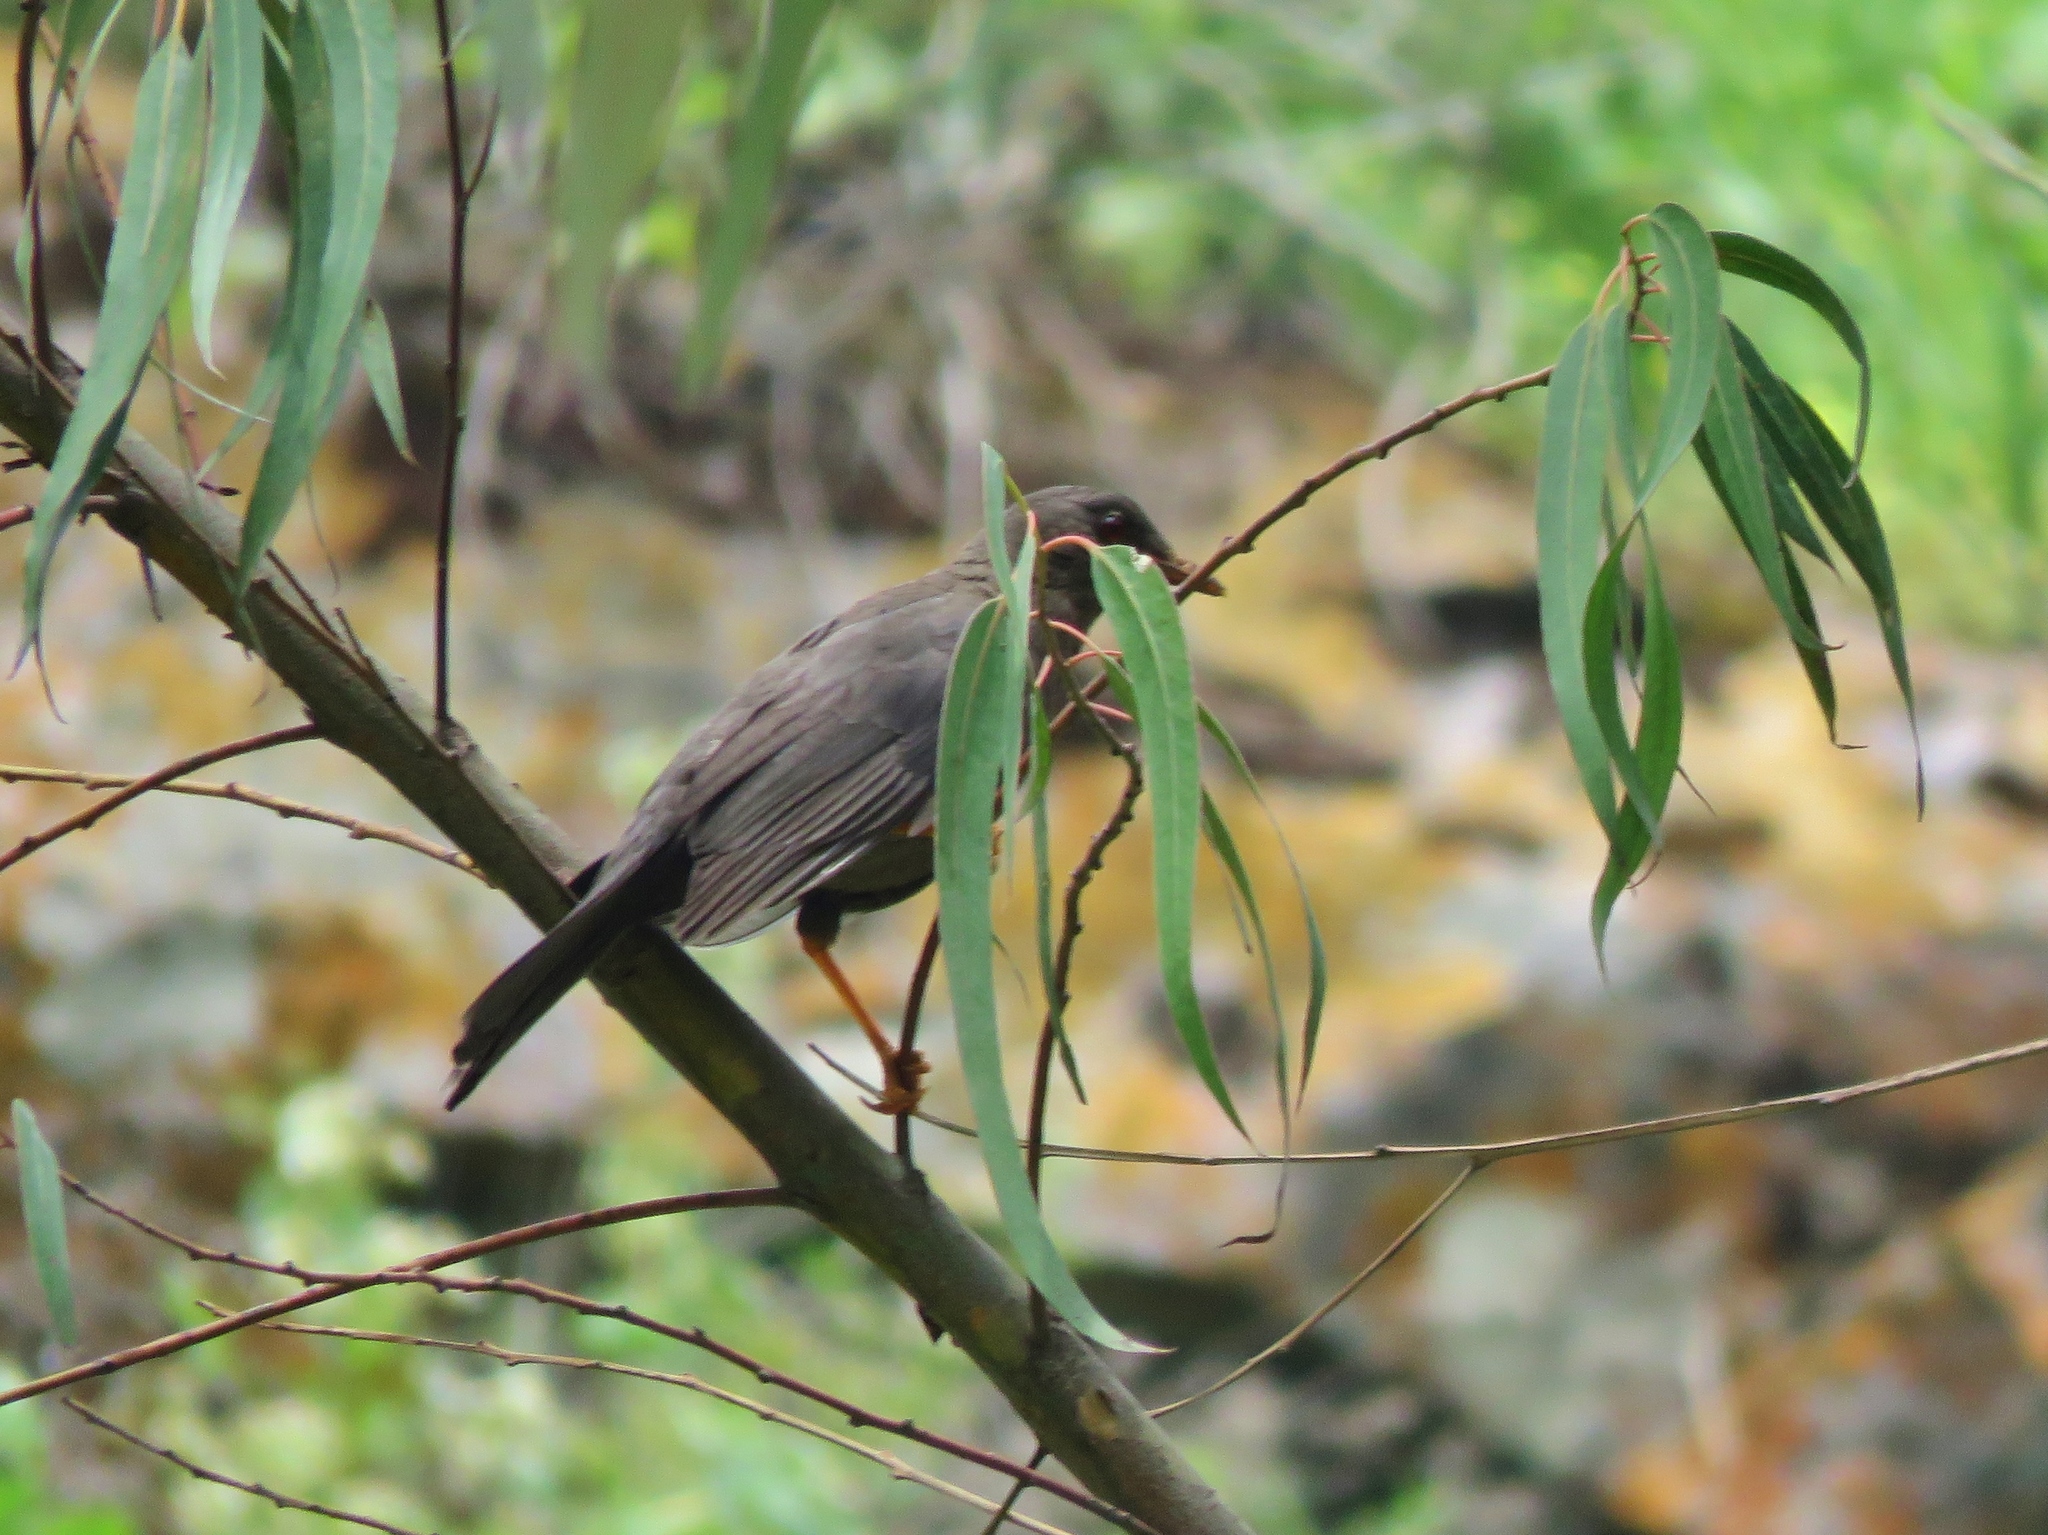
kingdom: Animalia
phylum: Chordata
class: Aves
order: Passeriformes
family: Turdidae
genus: Turdus
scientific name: Turdus chiguanco
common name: Chiguanco thrush
